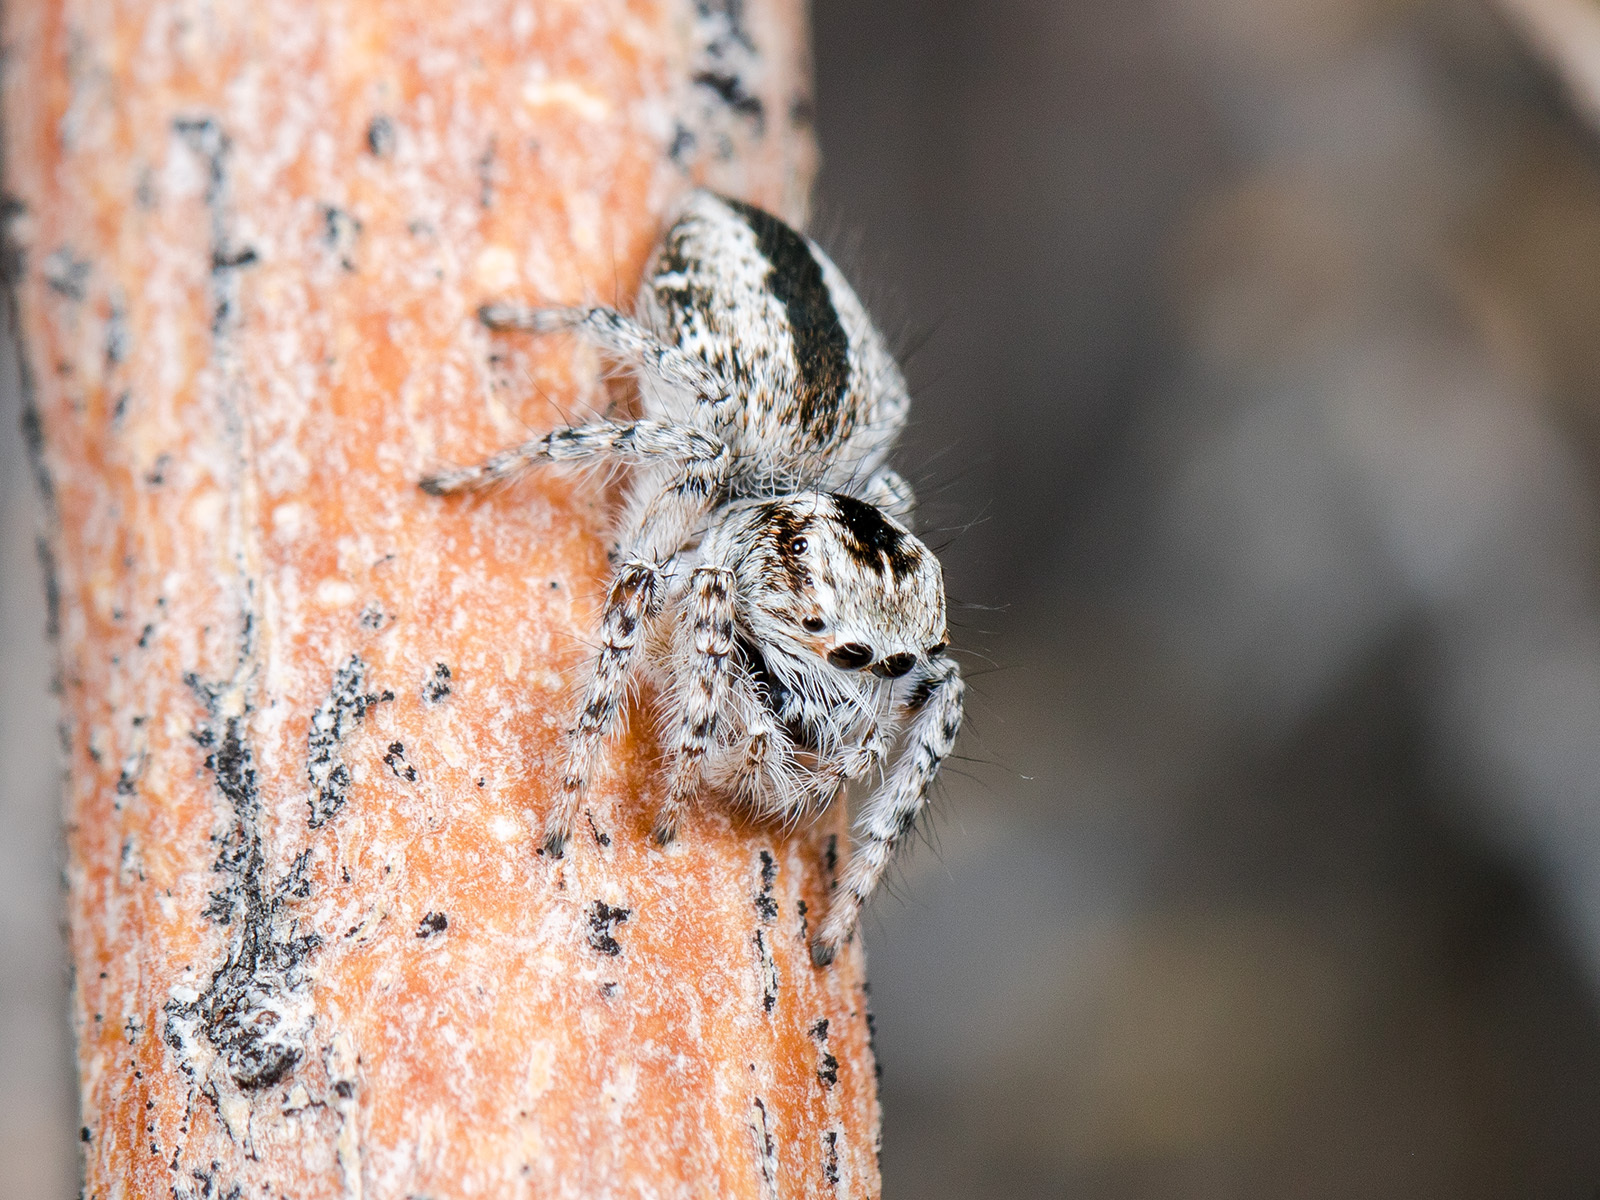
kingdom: Animalia
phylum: Arthropoda
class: Arachnida
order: Araneae
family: Salticidae
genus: Mogrus
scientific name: Mogrus antoninus
